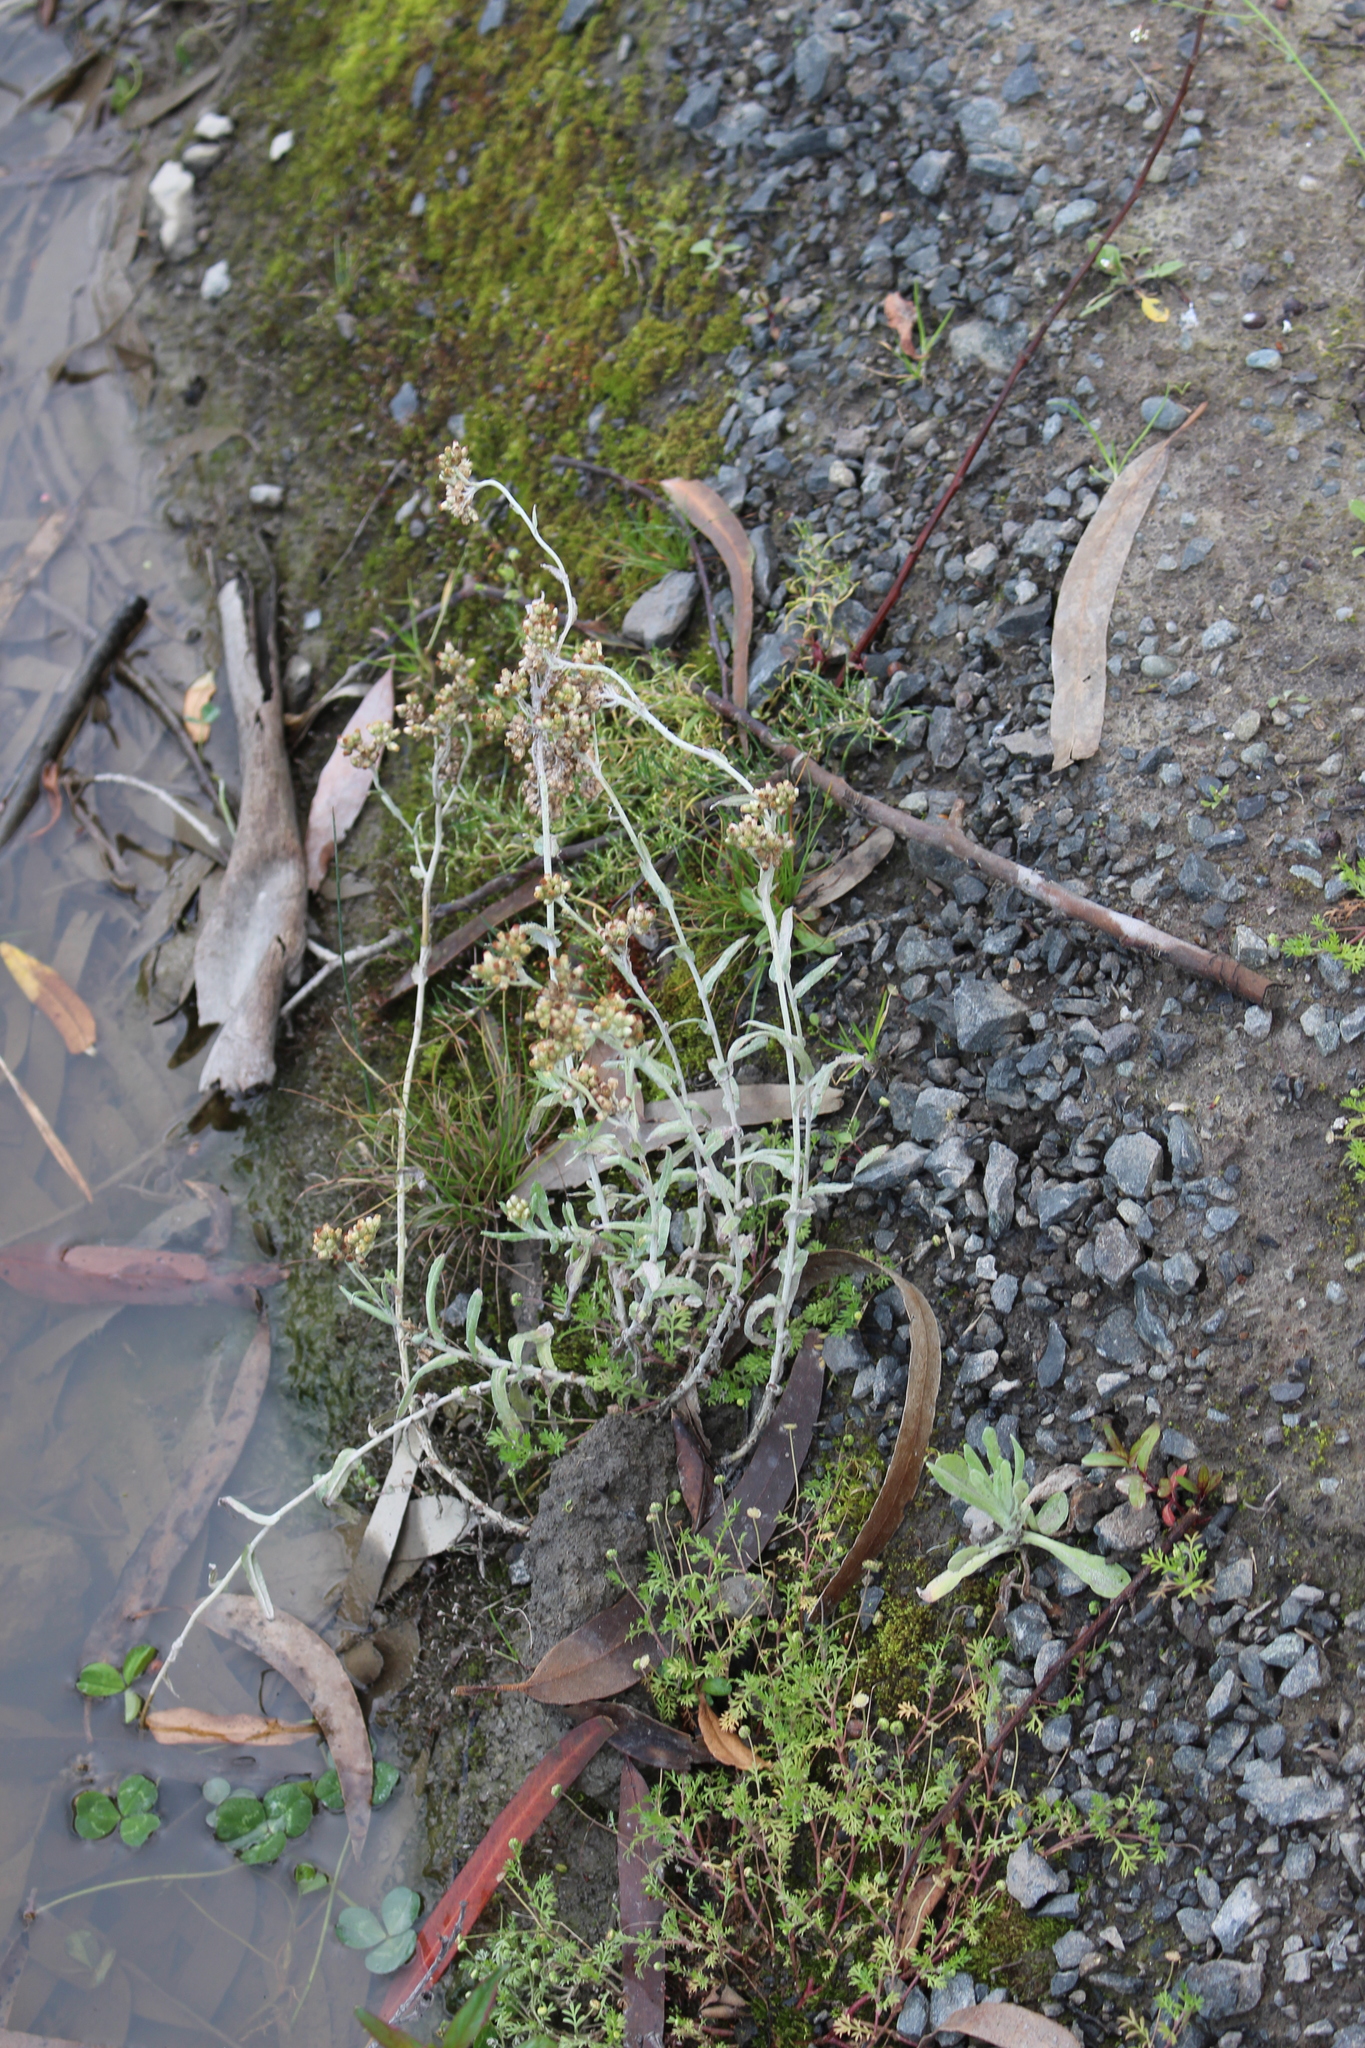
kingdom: Plantae
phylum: Tracheophyta
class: Magnoliopsida
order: Asterales
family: Asteraceae
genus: Helichrysum
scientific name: Helichrysum luteoalbum
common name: Daisy
